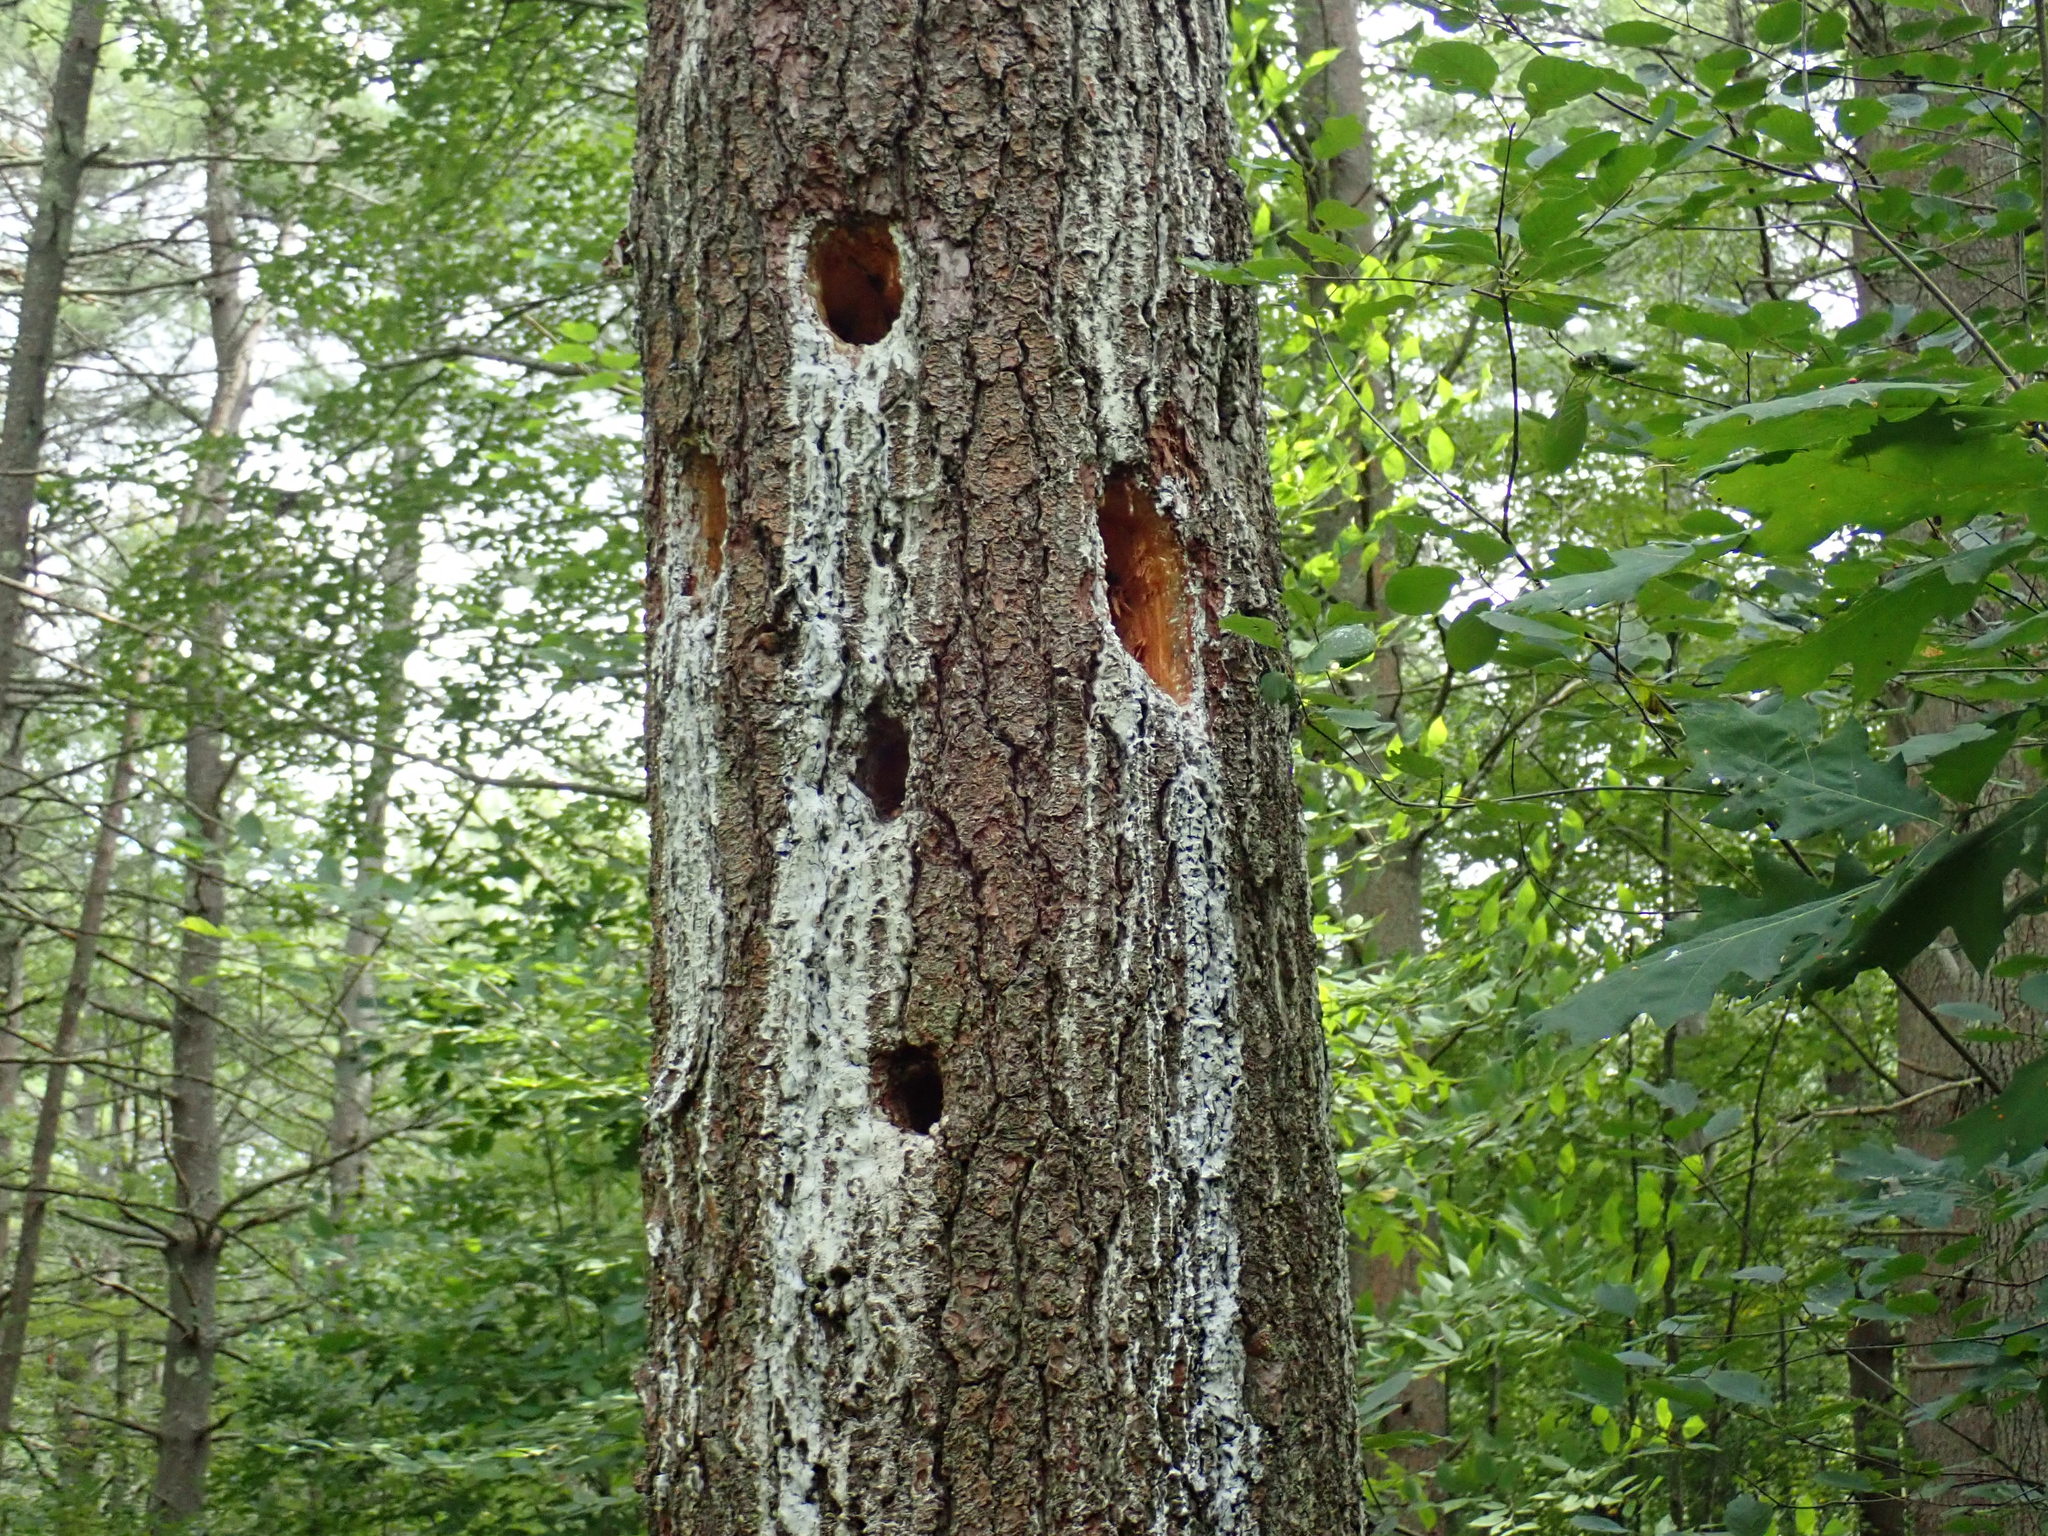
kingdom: Animalia
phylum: Chordata
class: Aves
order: Piciformes
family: Picidae
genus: Dryocopus
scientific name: Dryocopus pileatus
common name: Pileated woodpecker
